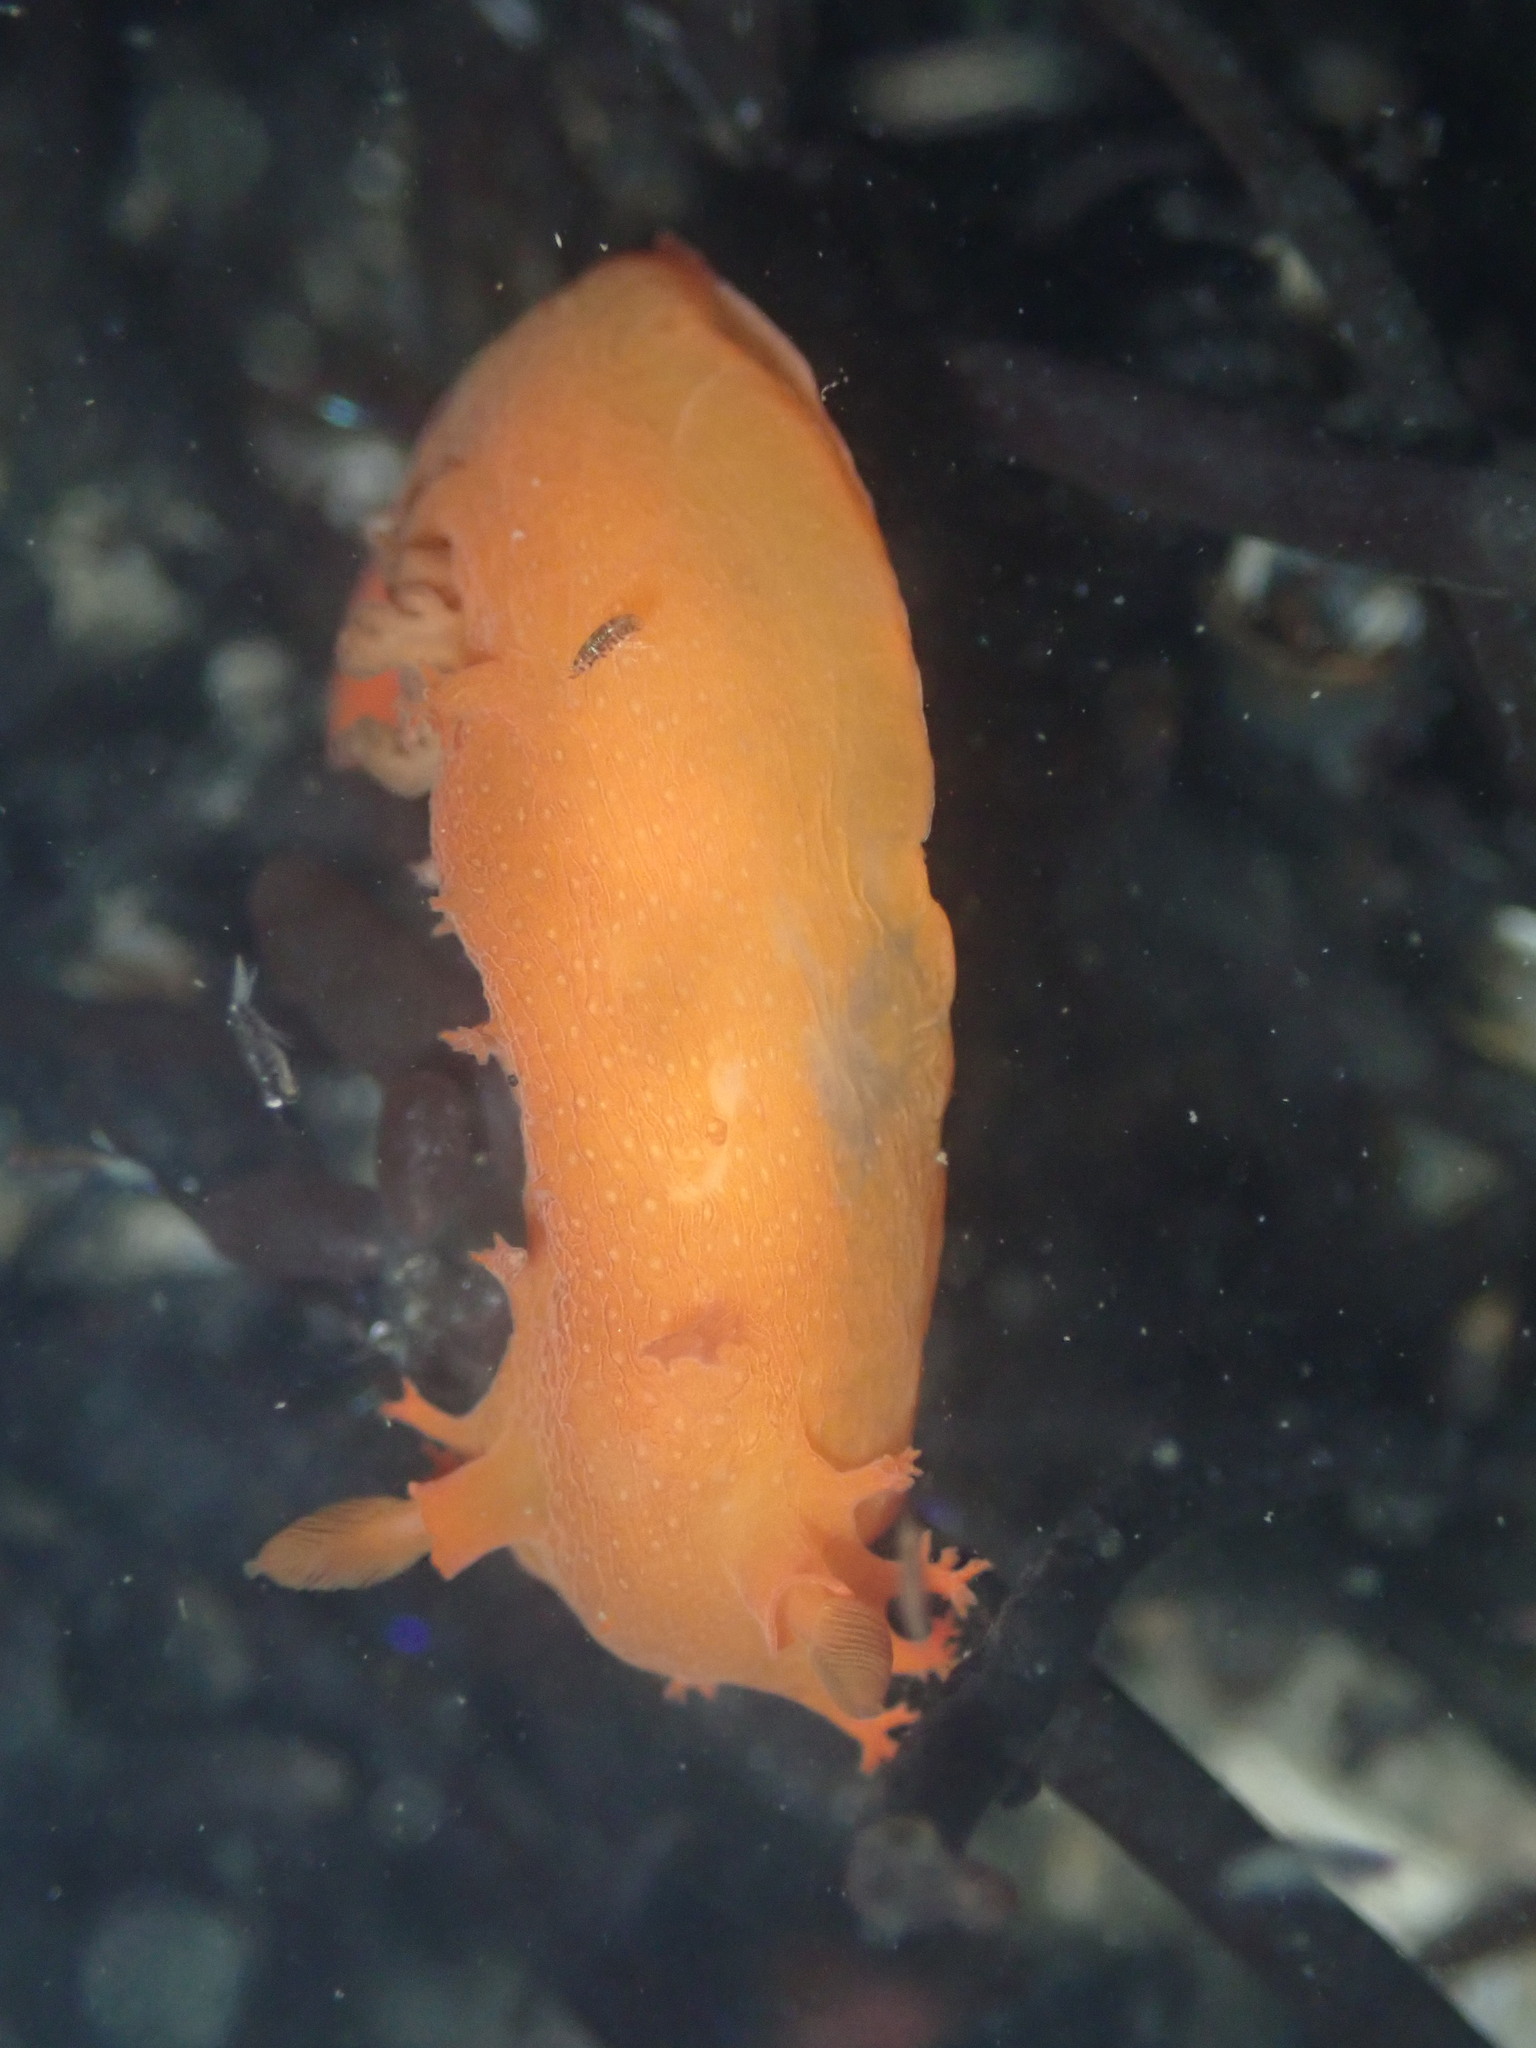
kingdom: Animalia
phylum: Mollusca
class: Gastropoda
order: Nudibranchia
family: Polyceridae
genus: Triopha
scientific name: Triopha maculata
